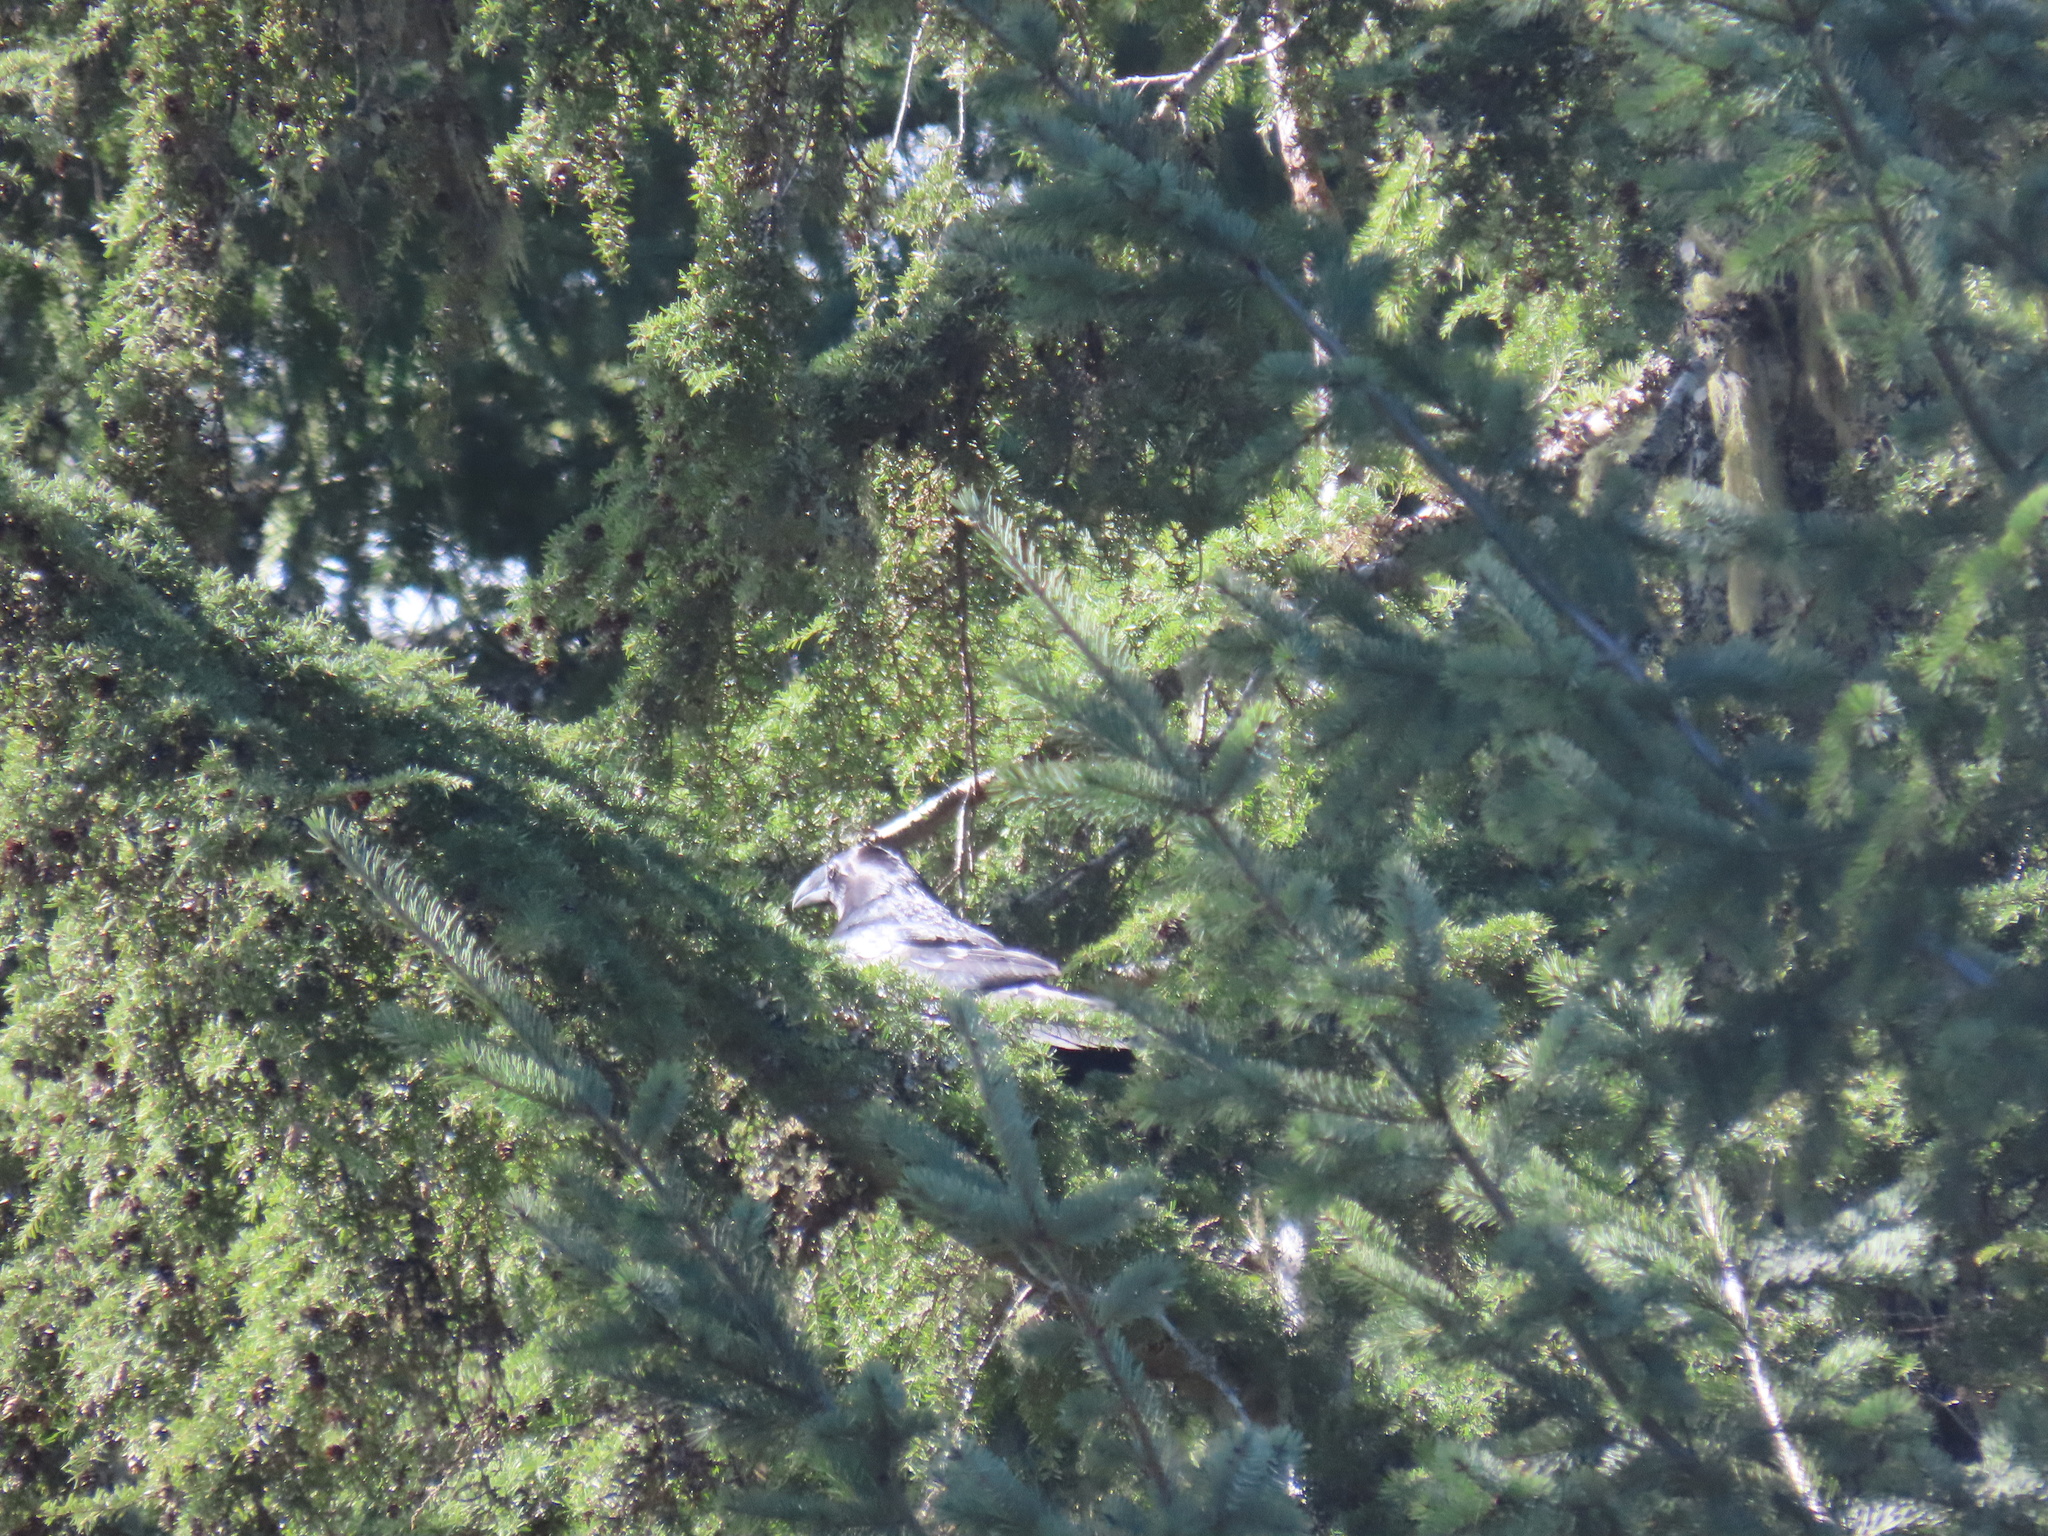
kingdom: Animalia
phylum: Chordata
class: Aves
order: Passeriformes
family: Corvidae
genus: Corvus
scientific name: Corvus corax
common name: Common raven
